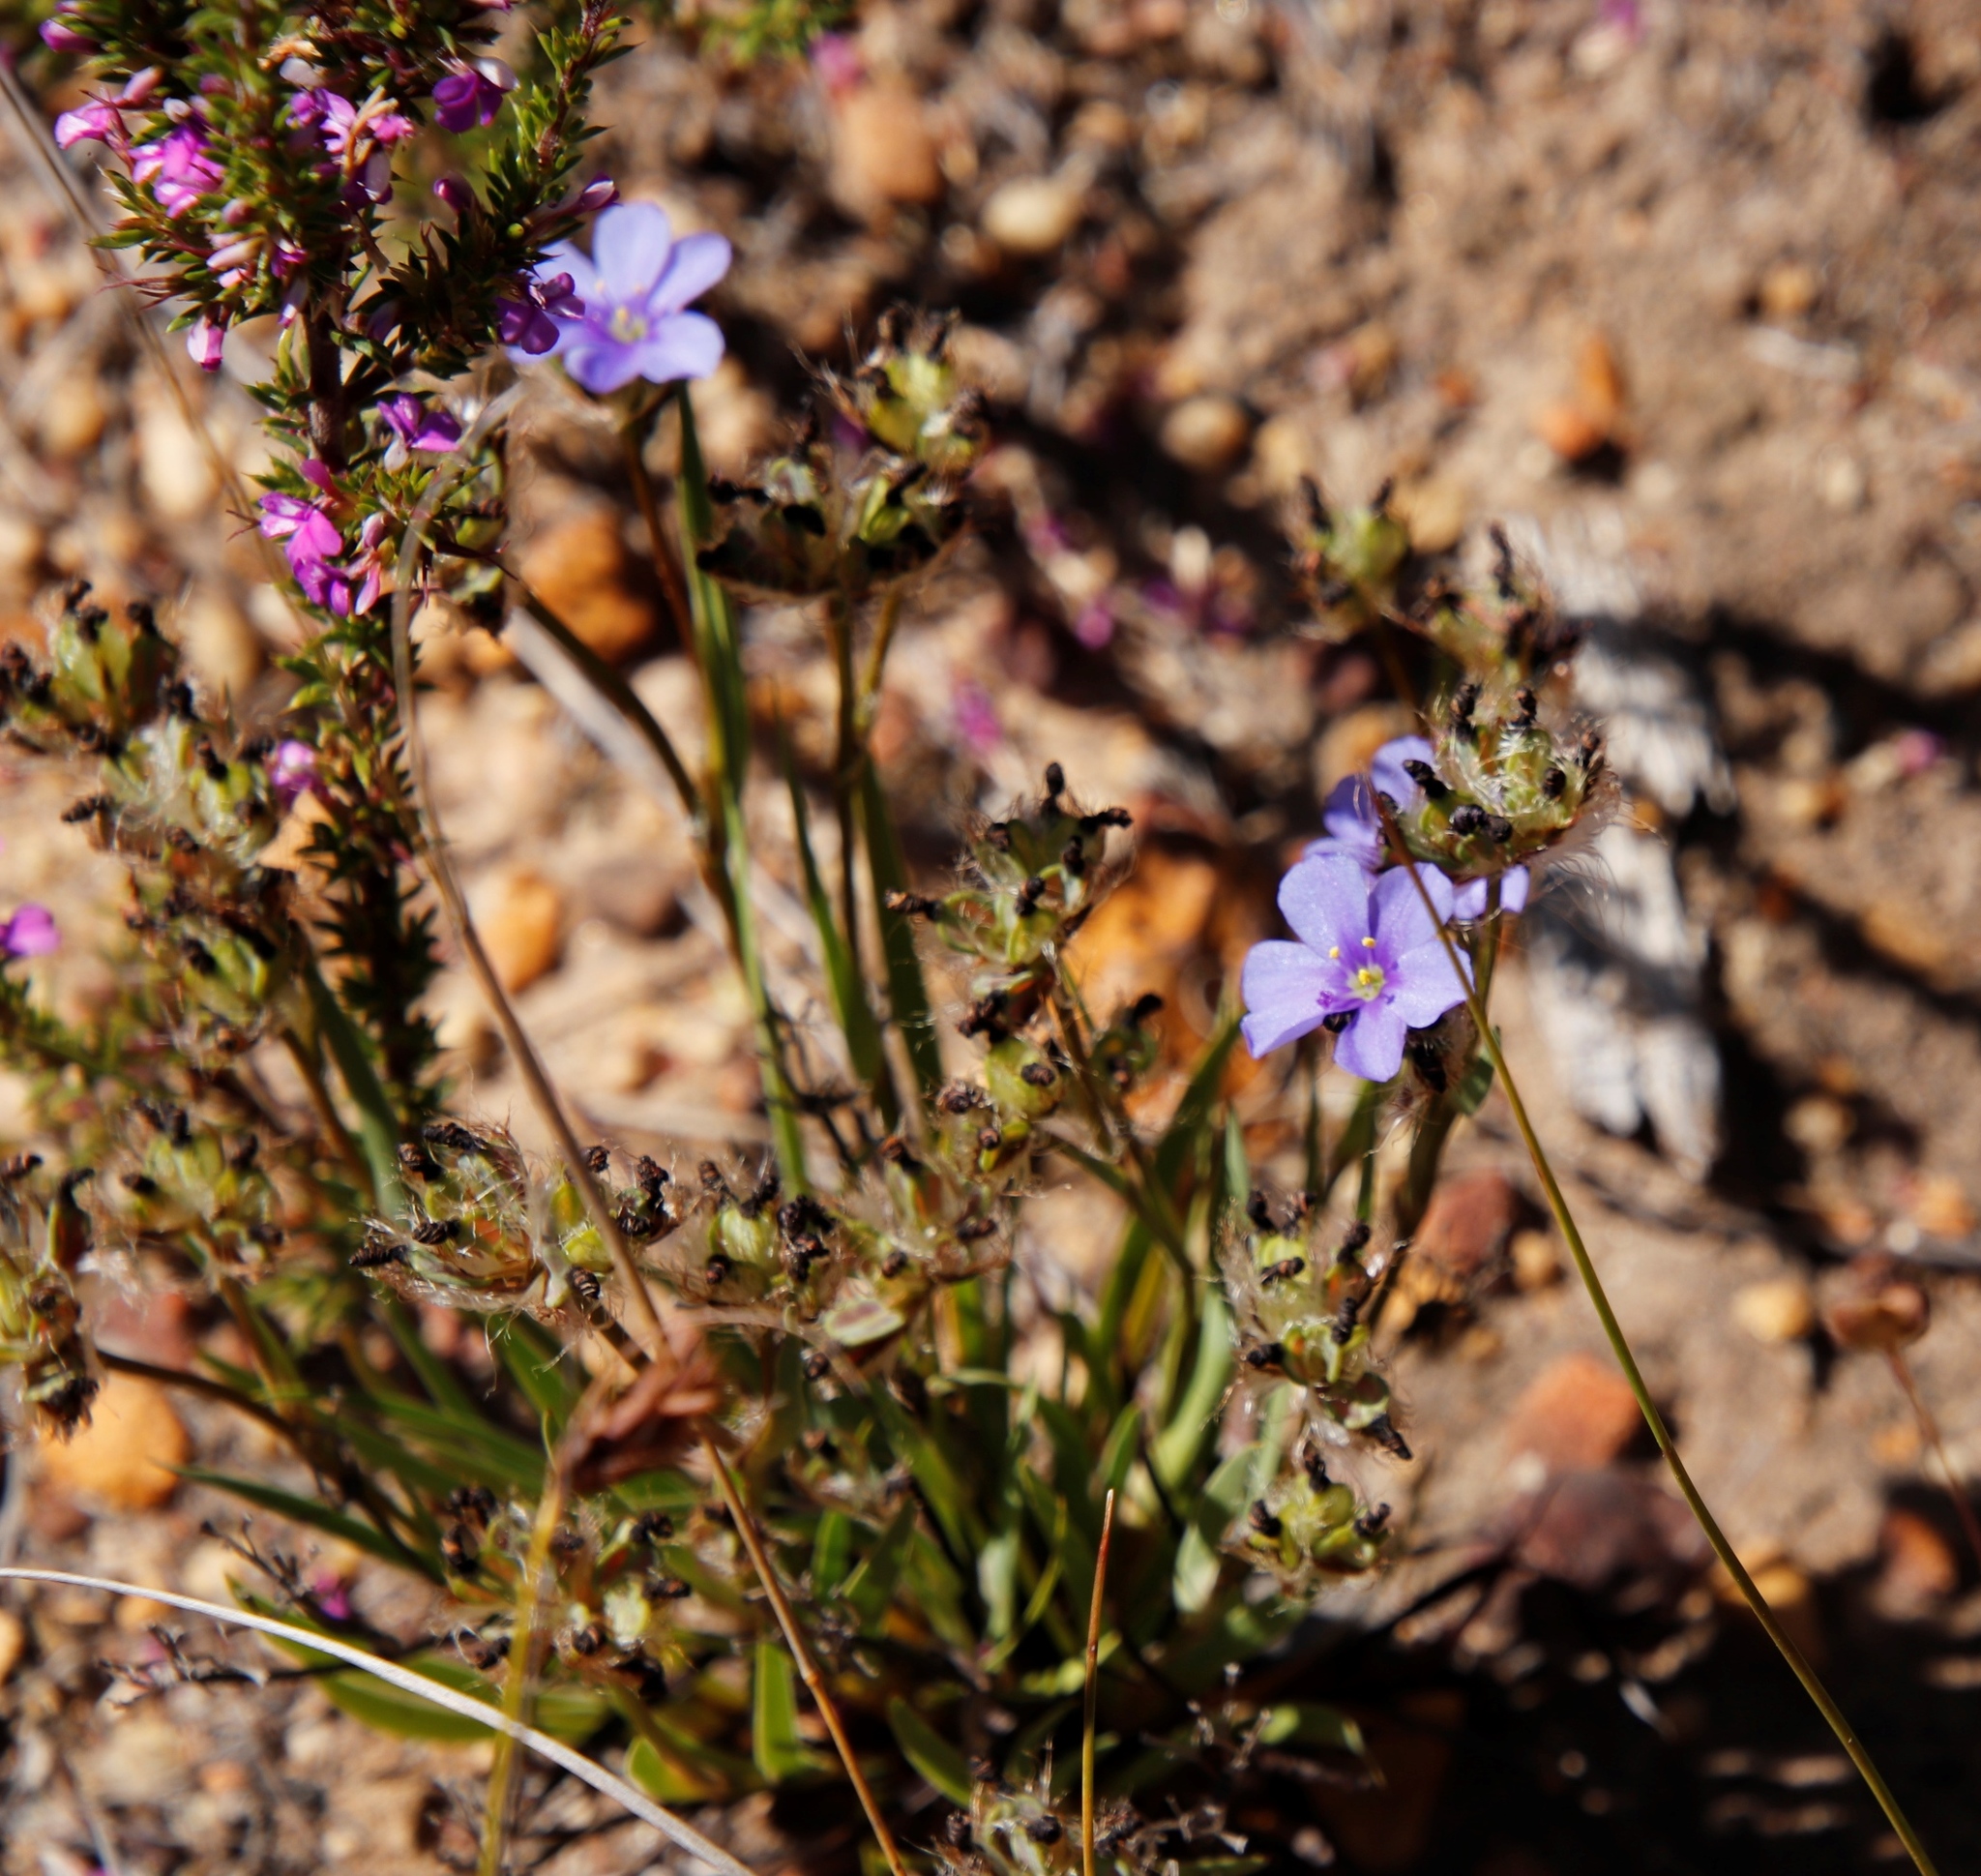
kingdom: Plantae
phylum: Tracheophyta
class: Liliopsida
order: Asparagales
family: Iridaceae
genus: Aristea
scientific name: Aristea africana
